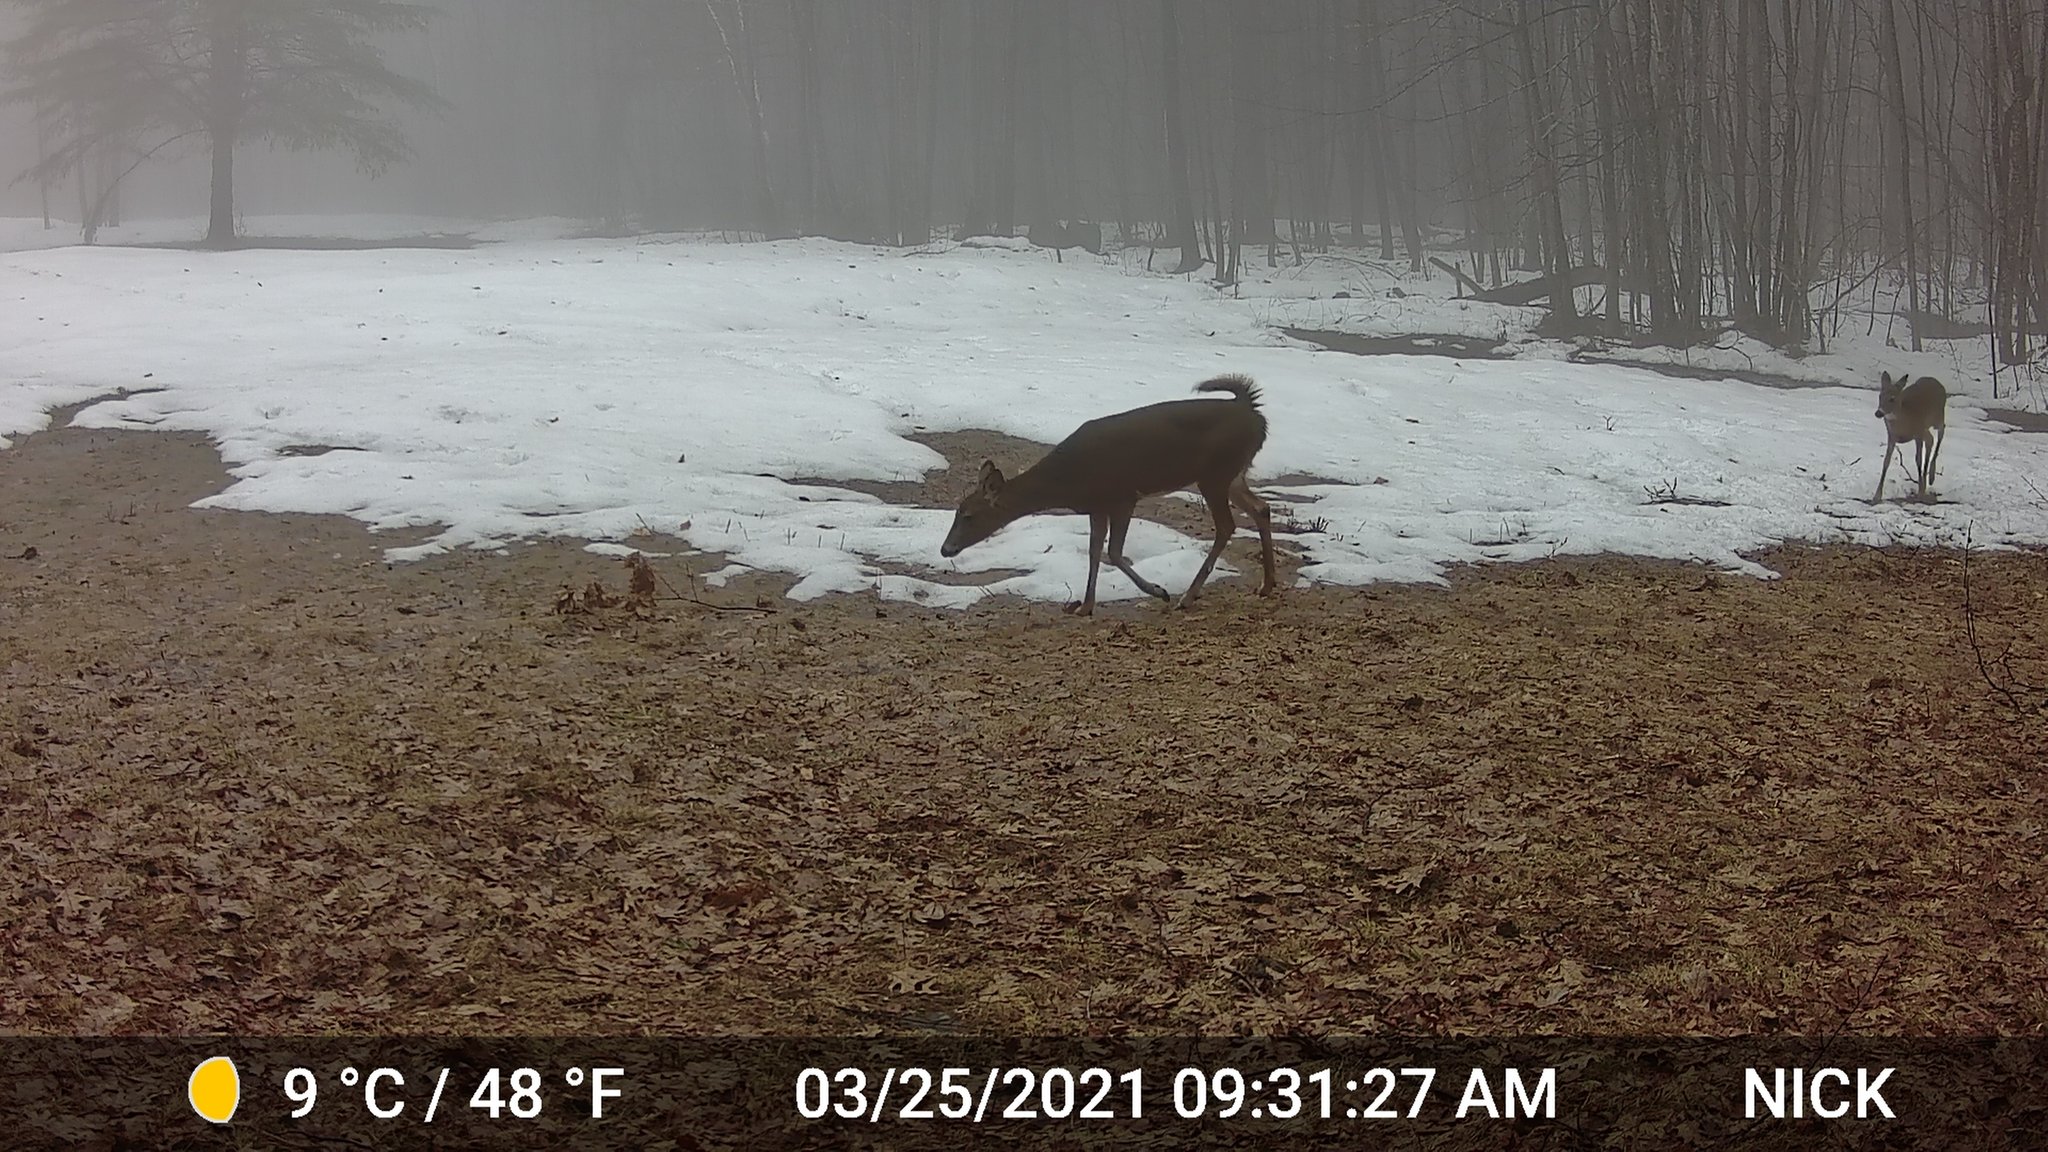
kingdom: Animalia
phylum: Chordata
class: Mammalia
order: Artiodactyla
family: Cervidae
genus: Odocoileus
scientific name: Odocoileus virginianus
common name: White-tailed deer
